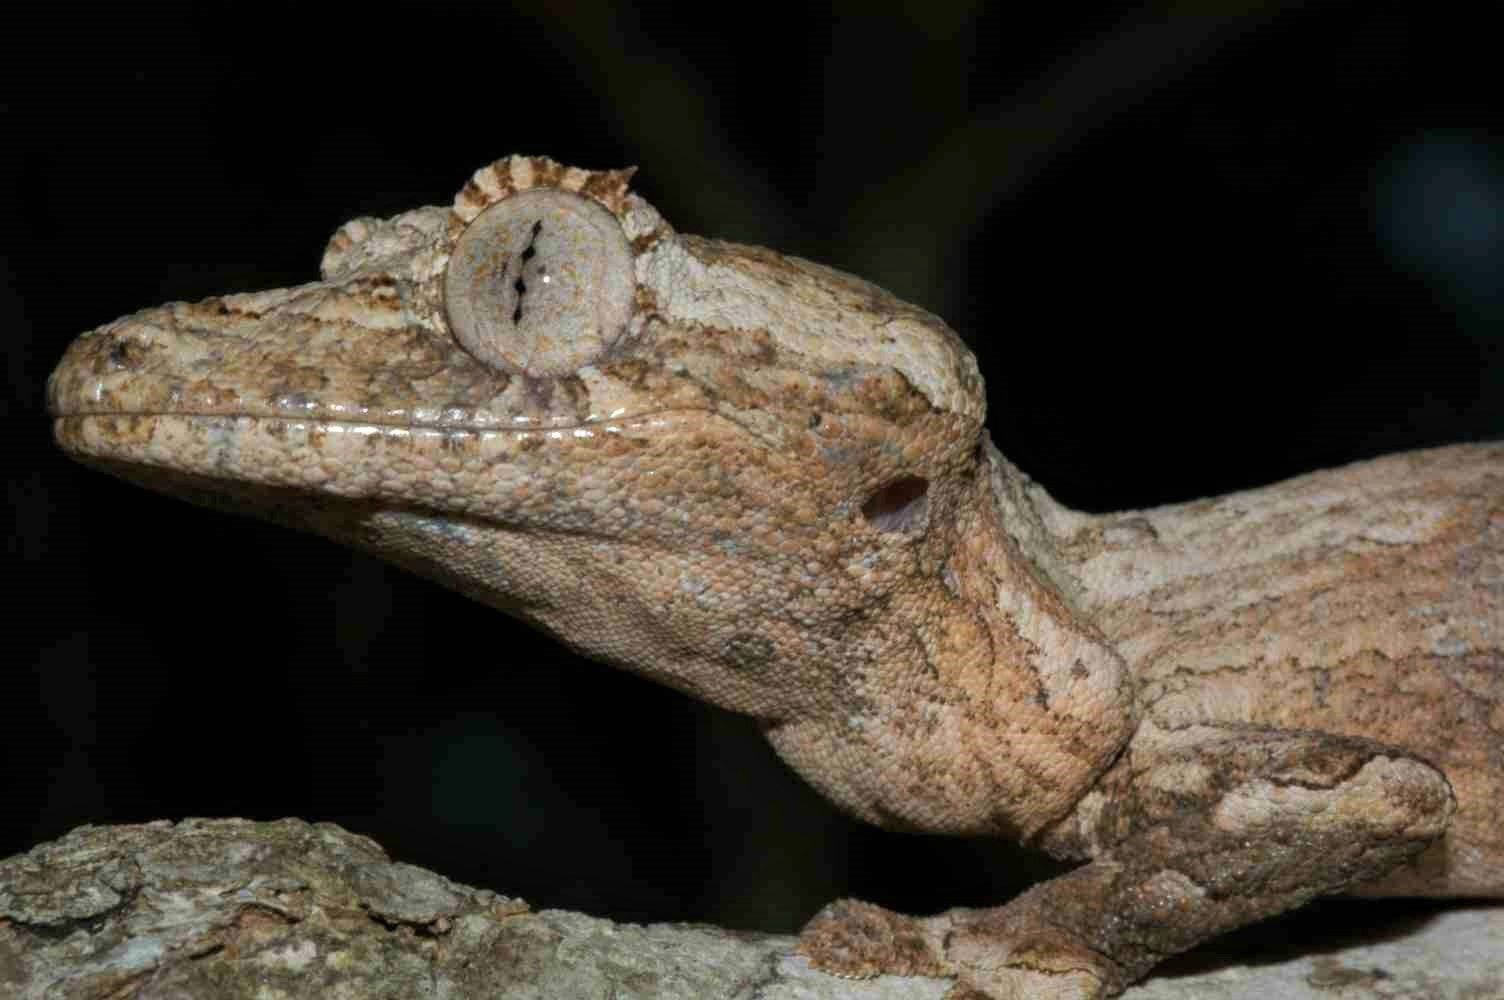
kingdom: Animalia
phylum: Chordata
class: Squamata
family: Gekkonidae
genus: Uroplatus
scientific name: Uroplatus guentheri
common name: Gunther's fiat-tail gecko
